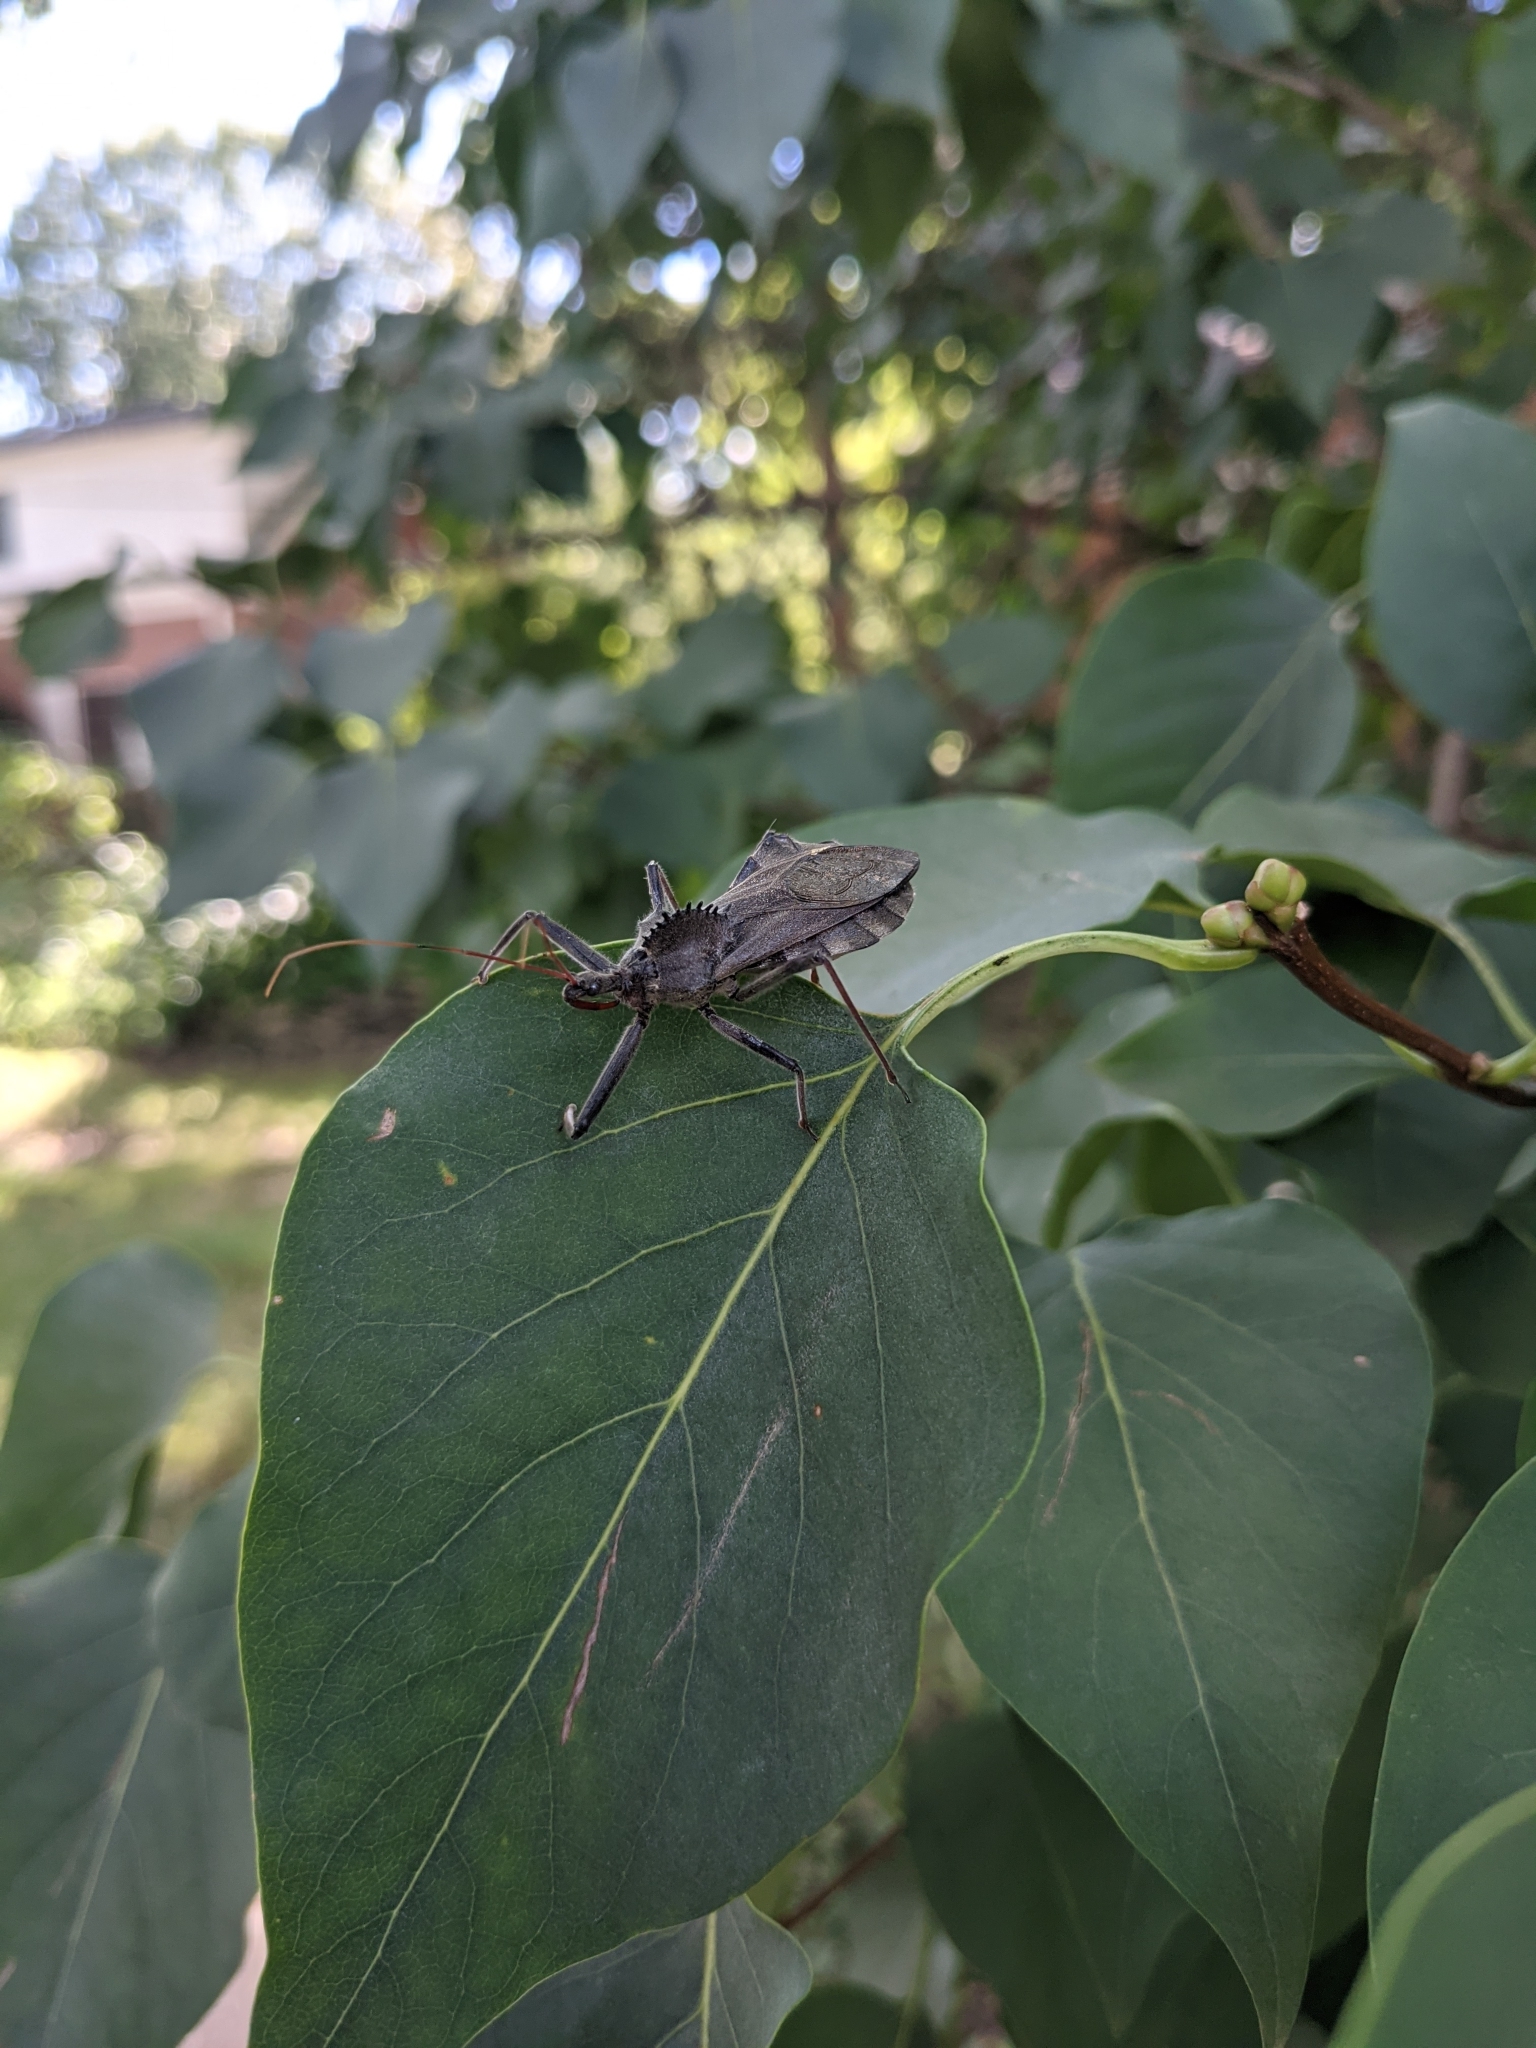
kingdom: Animalia
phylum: Arthropoda
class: Insecta
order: Hemiptera
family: Reduviidae
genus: Arilus
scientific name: Arilus cristatus
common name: North american wheel bug
